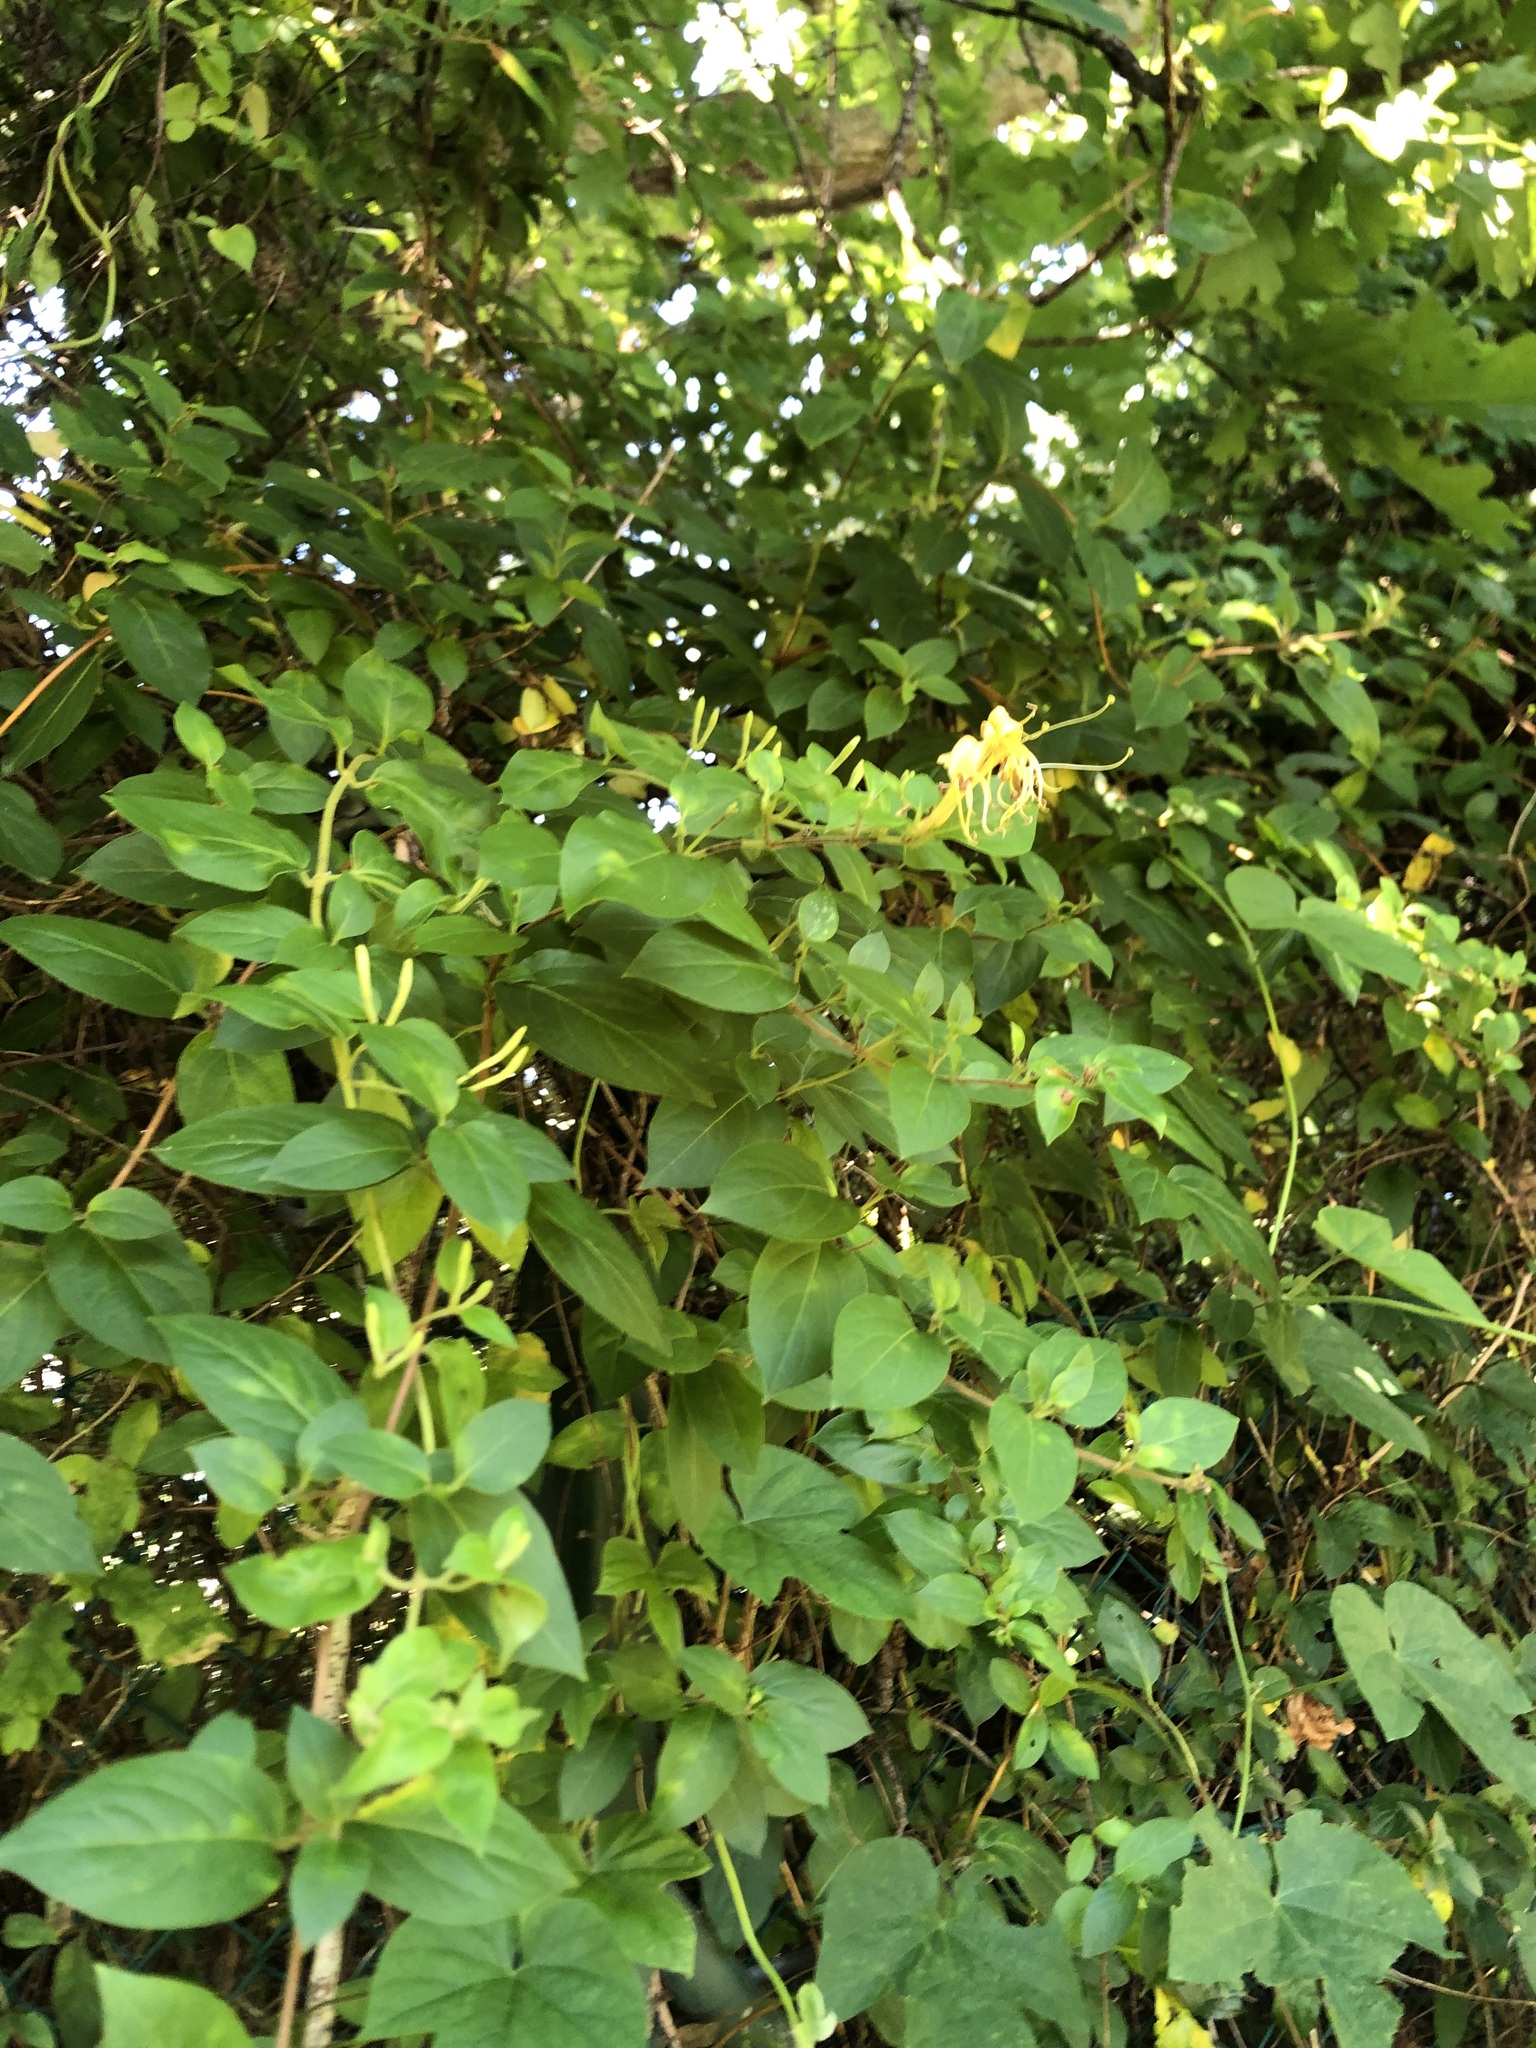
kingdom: Plantae
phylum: Tracheophyta
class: Magnoliopsida
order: Dipsacales
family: Caprifoliaceae
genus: Lonicera
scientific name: Lonicera japonica
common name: Japanese honeysuckle
